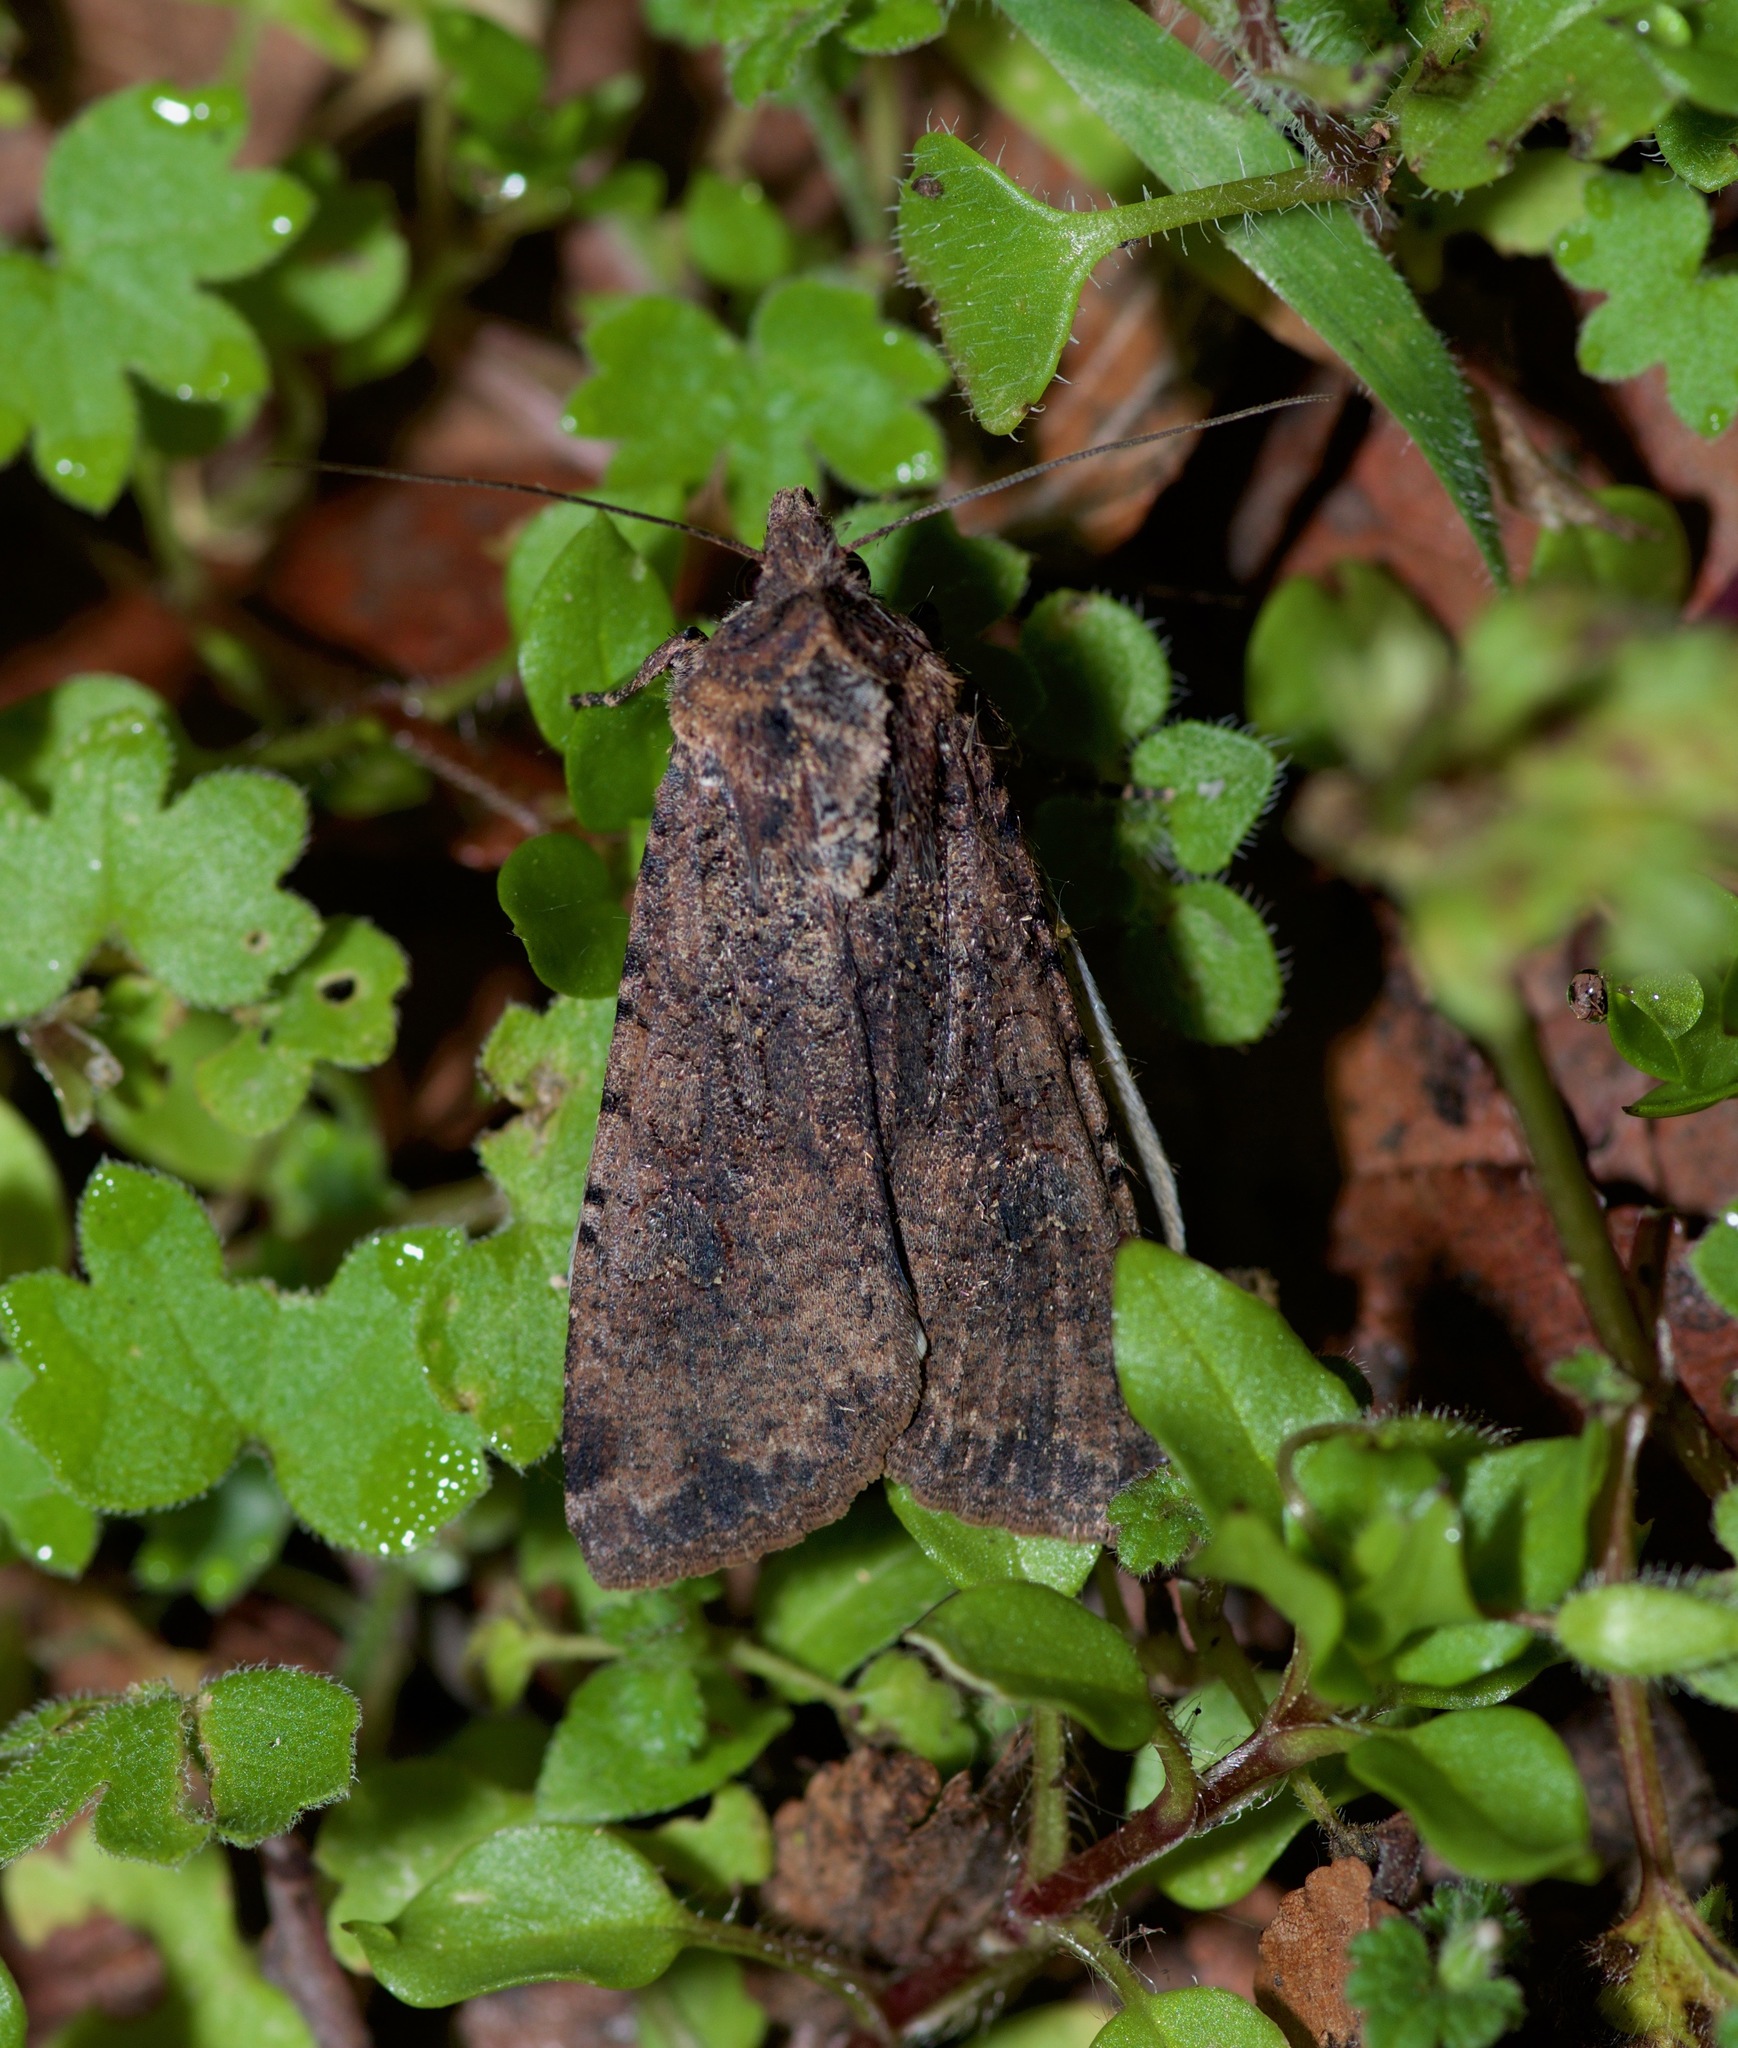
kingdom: Animalia
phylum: Arthropoda
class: Insecta
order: Lepidoptera
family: Noctuidae
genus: Peridroma
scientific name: Peridroma saucia
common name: Pearly underwing
